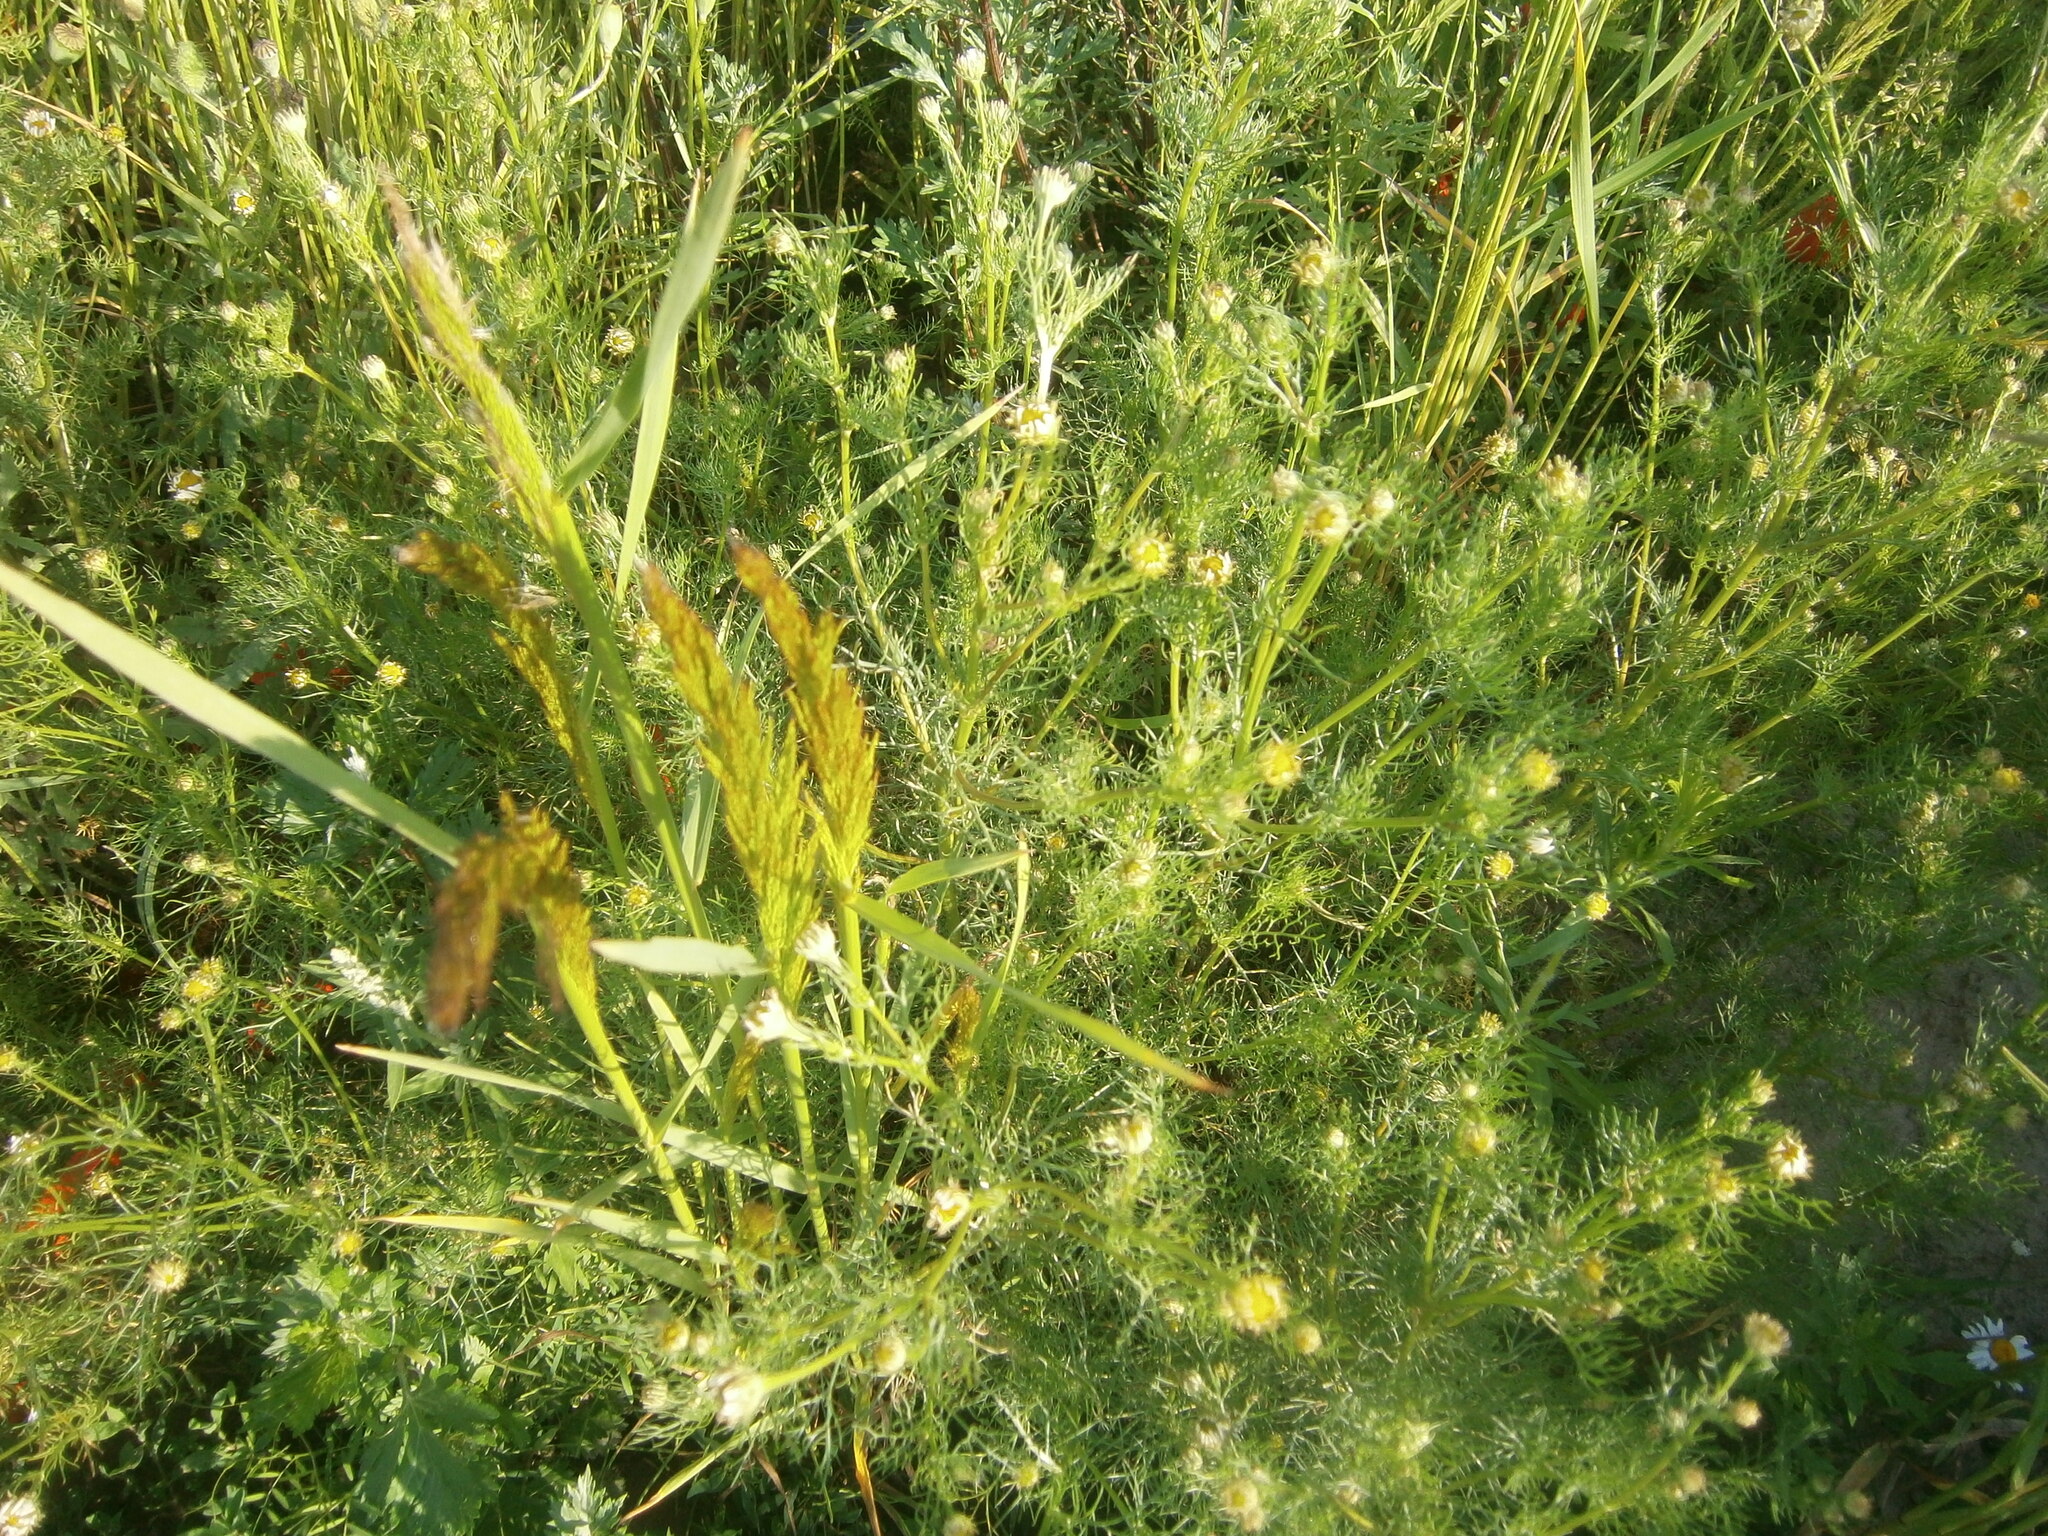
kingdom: Plantae
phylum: Tracheophyta
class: Magnoliopsida
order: Asterales
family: Asteraceae
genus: Tripleurospermum
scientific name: Tripleurospermum inodorum
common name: Scentless mayweed
